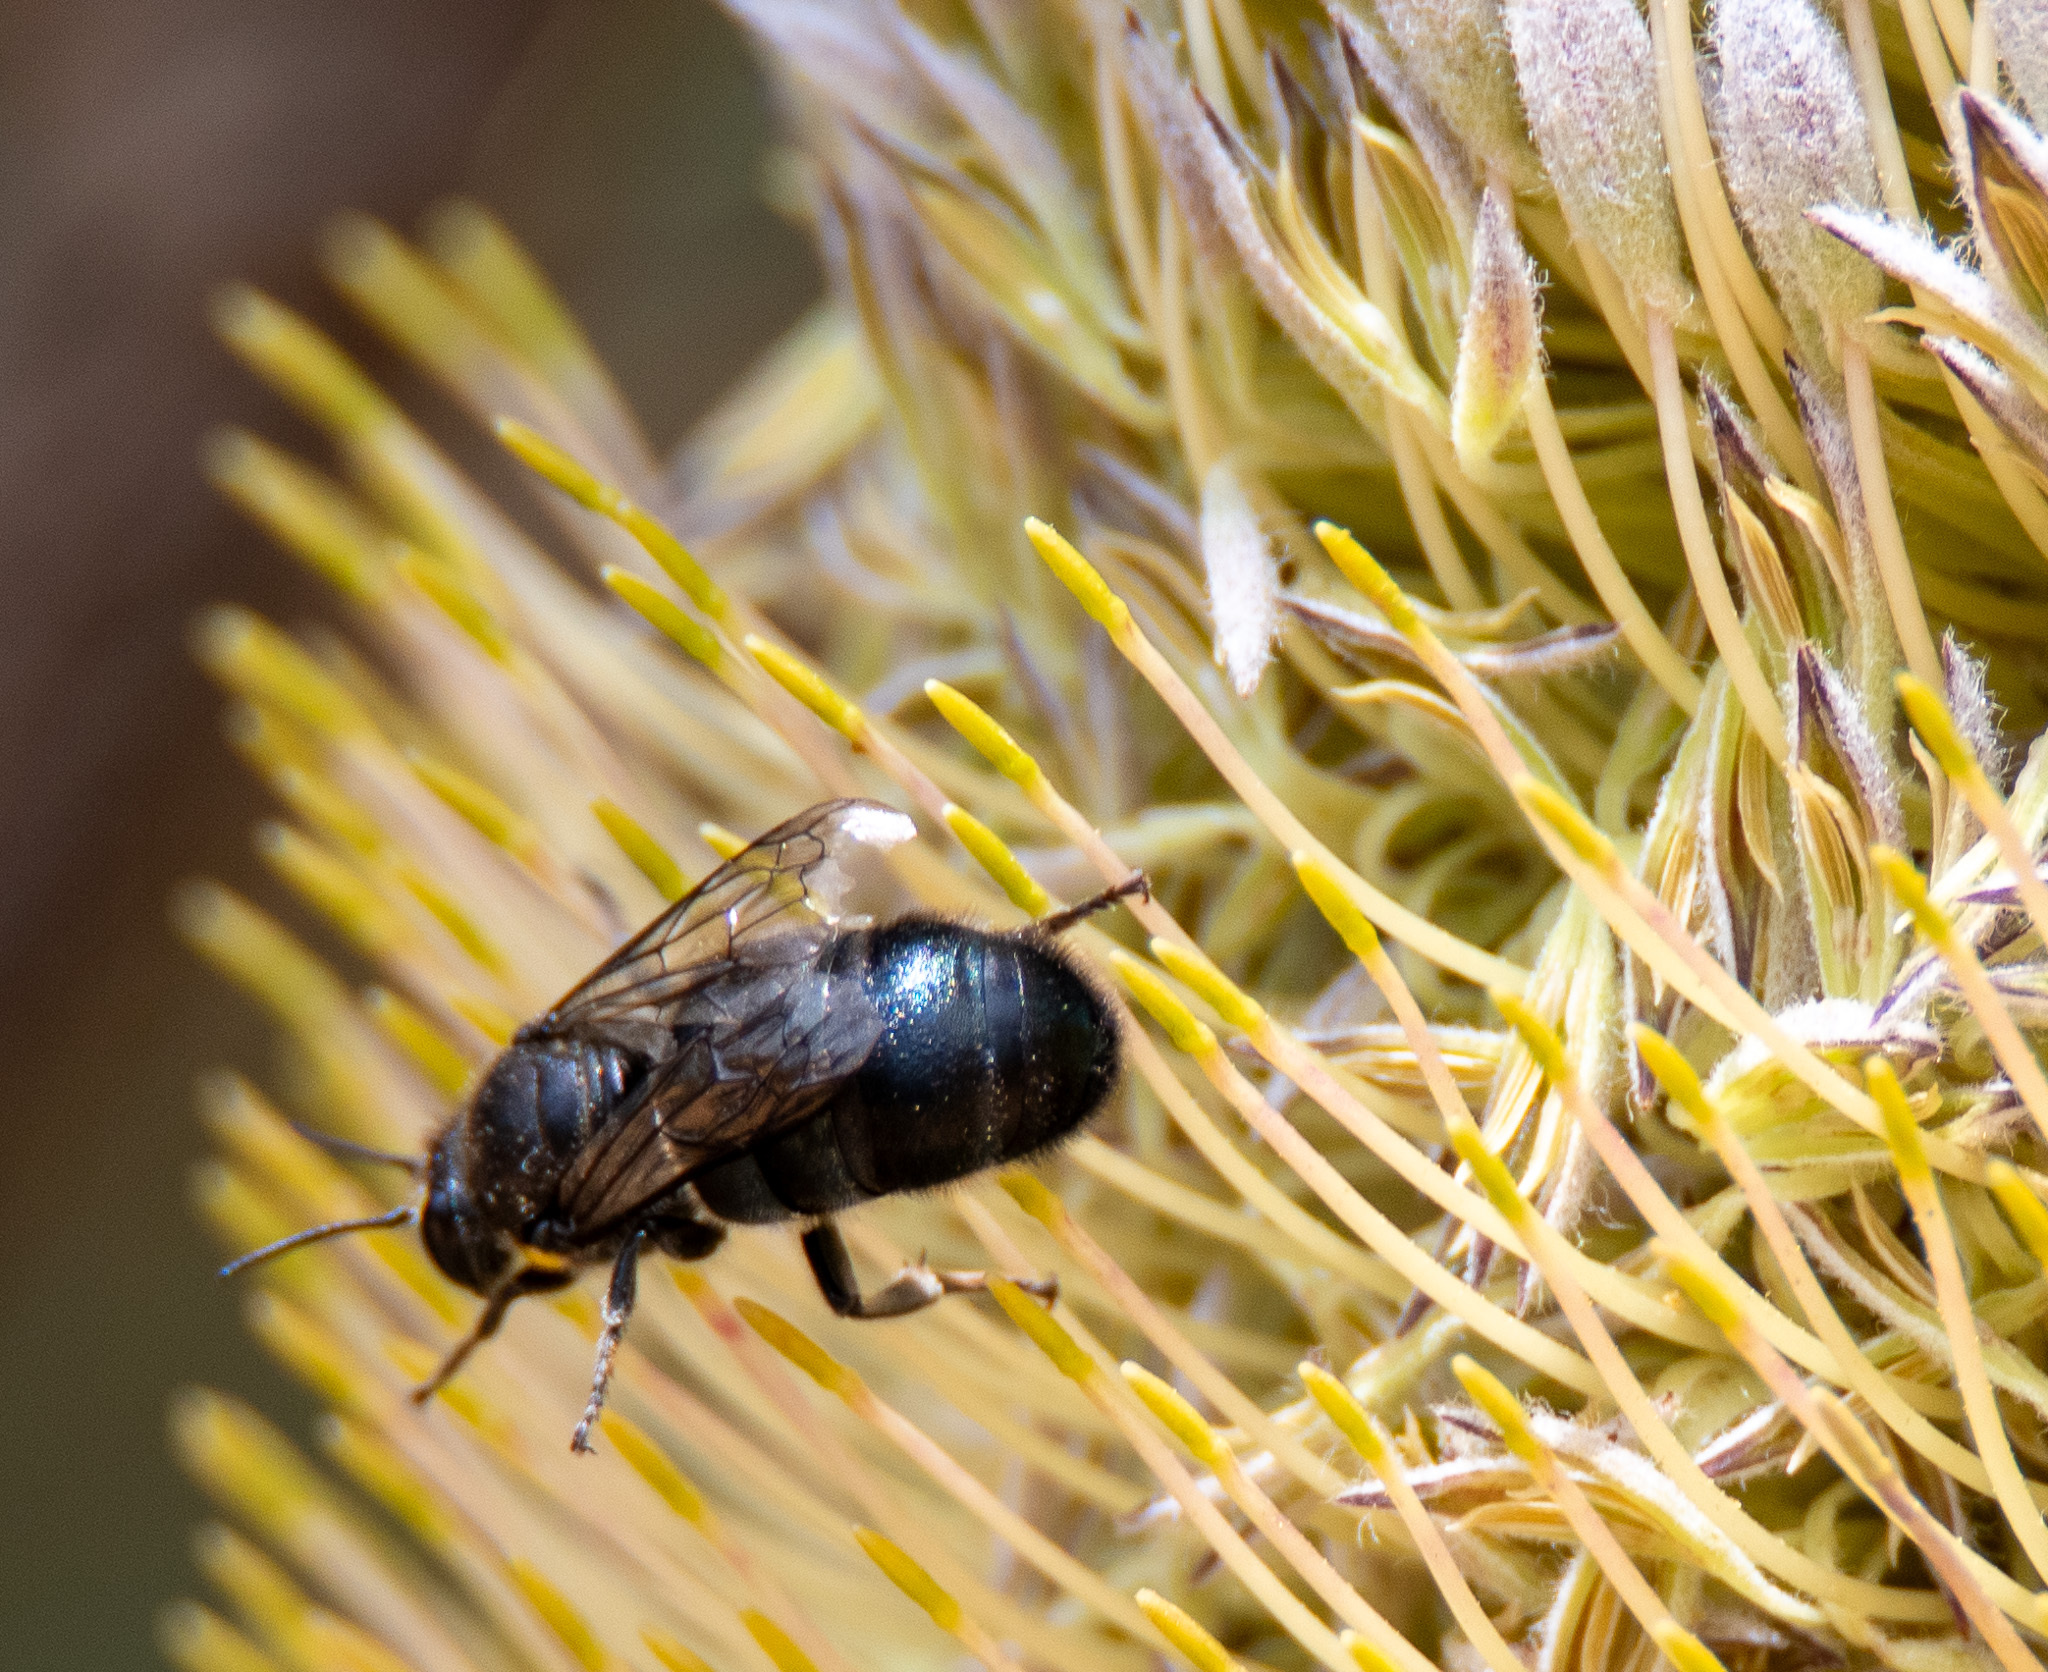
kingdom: Animalia
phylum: Arthropoda
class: Insecta
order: Hymenoptera
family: Colletidae
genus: Hylaeus
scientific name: Hylaeus alcyoneus
